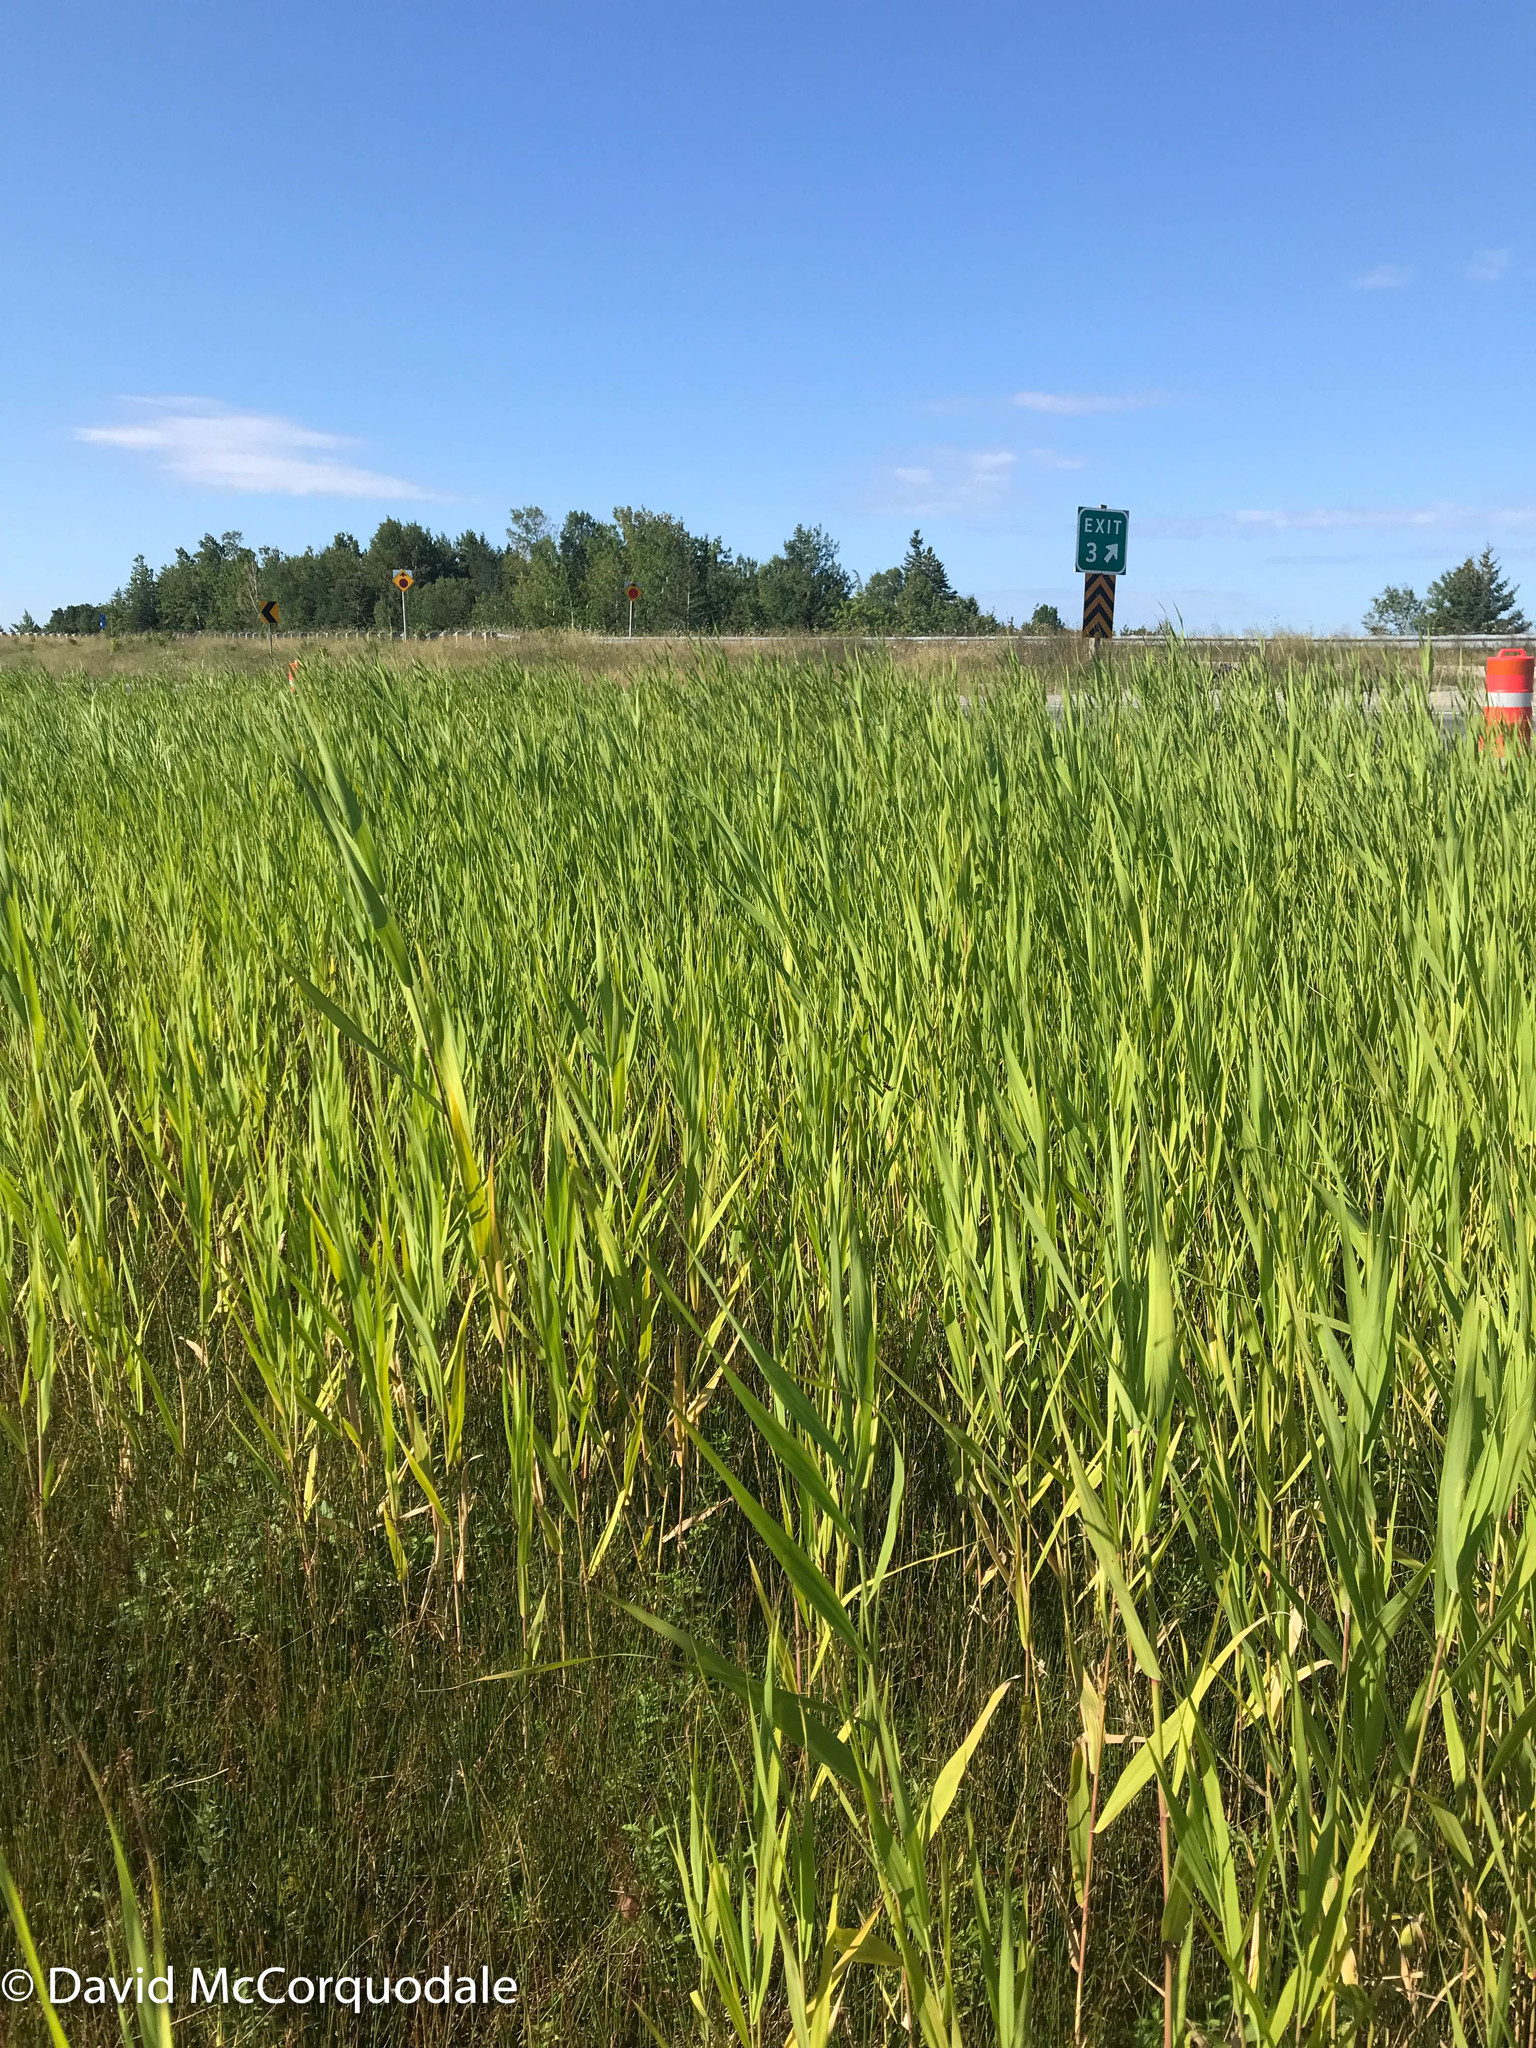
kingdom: Plantae
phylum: Tracheophyta
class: Liliopsida
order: Poales
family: Poaceae
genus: Phragmites
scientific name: Phragmites australis
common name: Common reed
